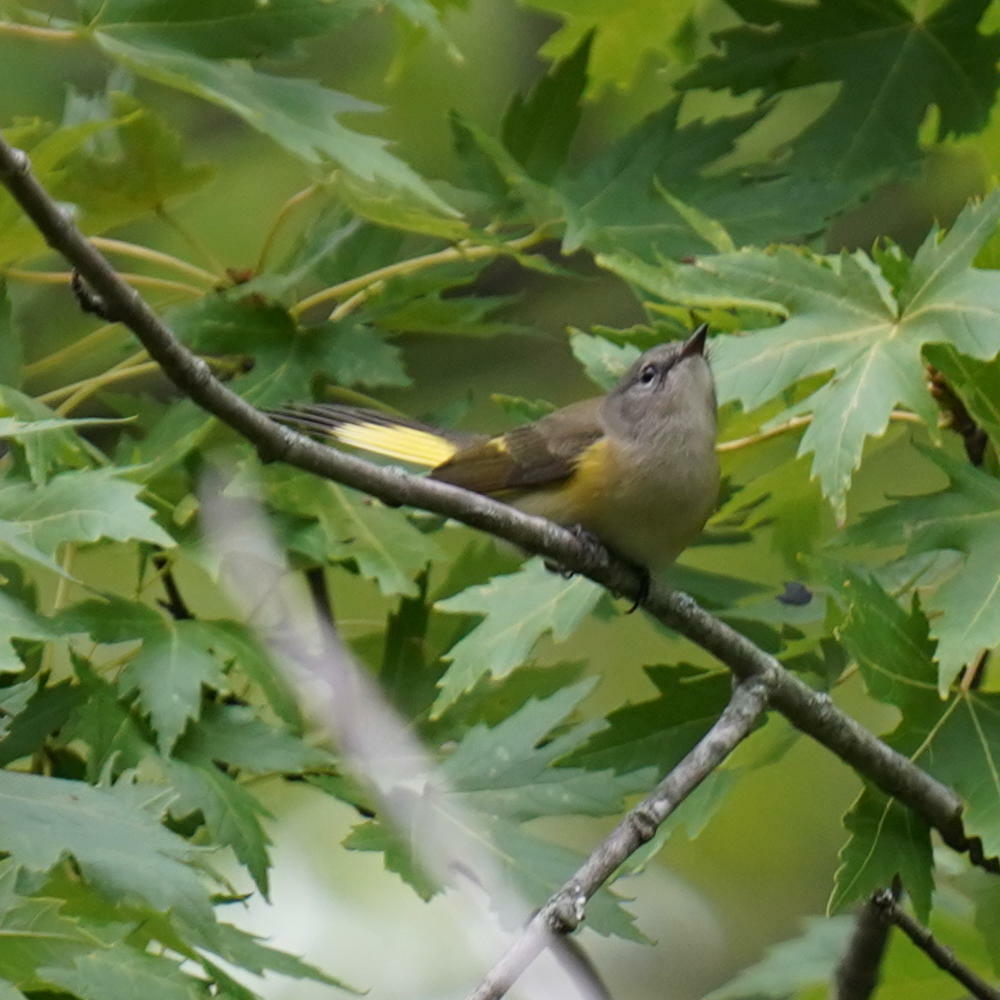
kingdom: Animalia
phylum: Chordata
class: Aves
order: Passeriformes
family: Parulidae
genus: Setophaga
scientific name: Setophaga ruticilla
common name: American redstart
